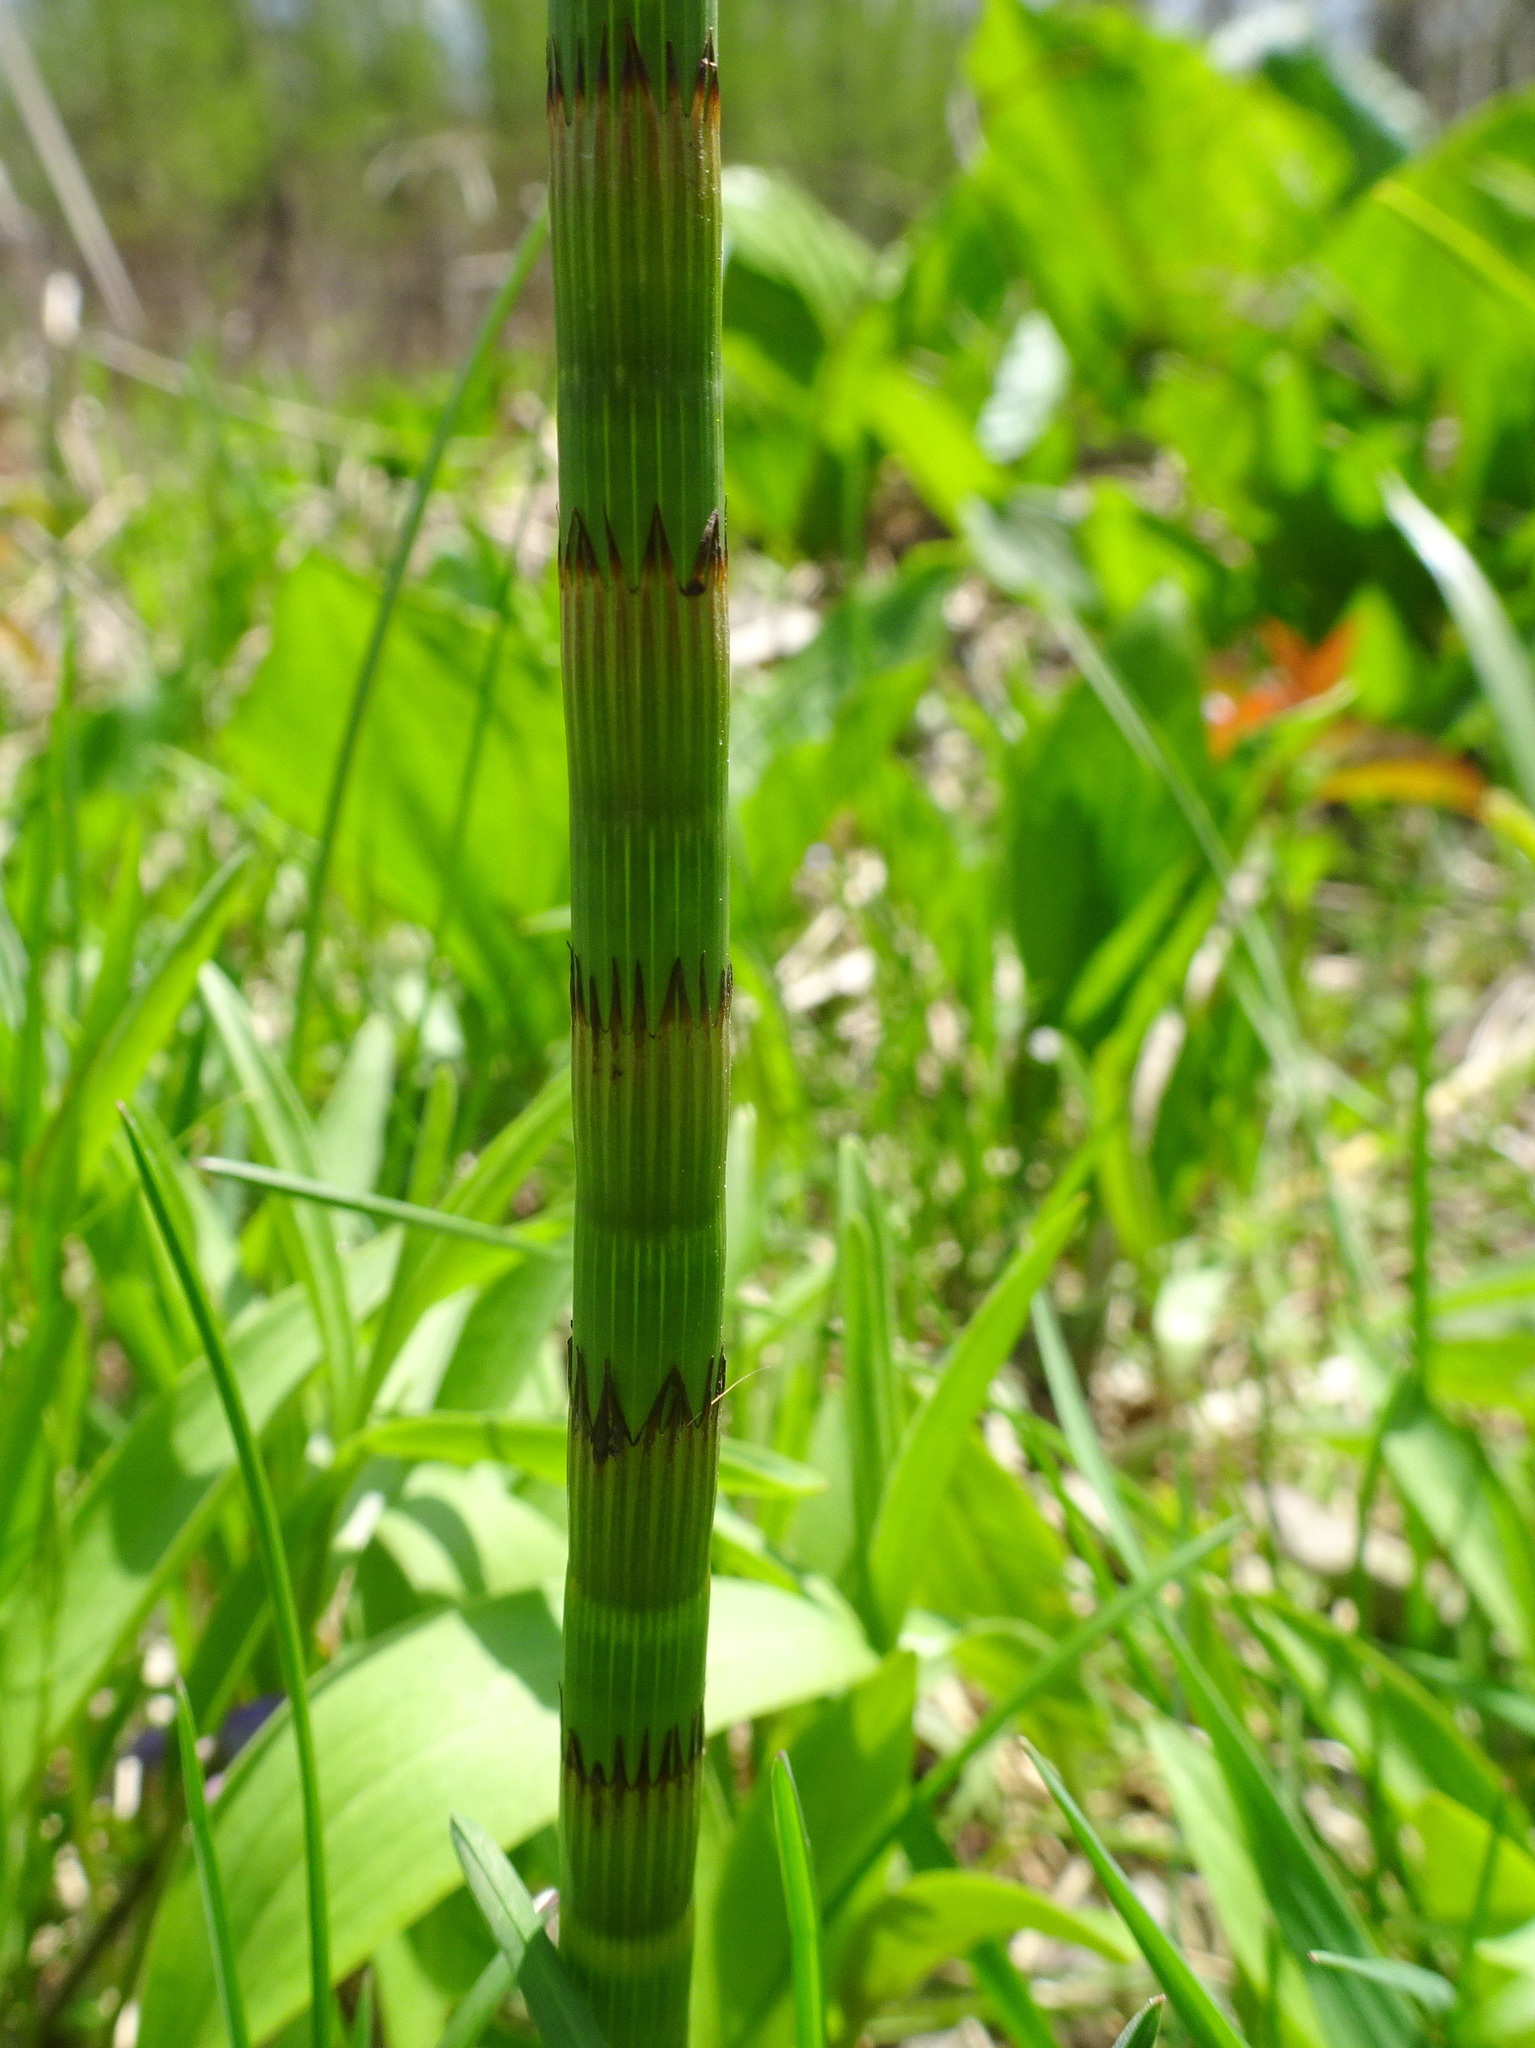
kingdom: Plantae
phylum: Tracheophyta
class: Polypodiopsida
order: Equisetales
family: Equisetaceae
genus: Equisetum
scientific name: Equisetum hyemale
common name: Rough horsetail
